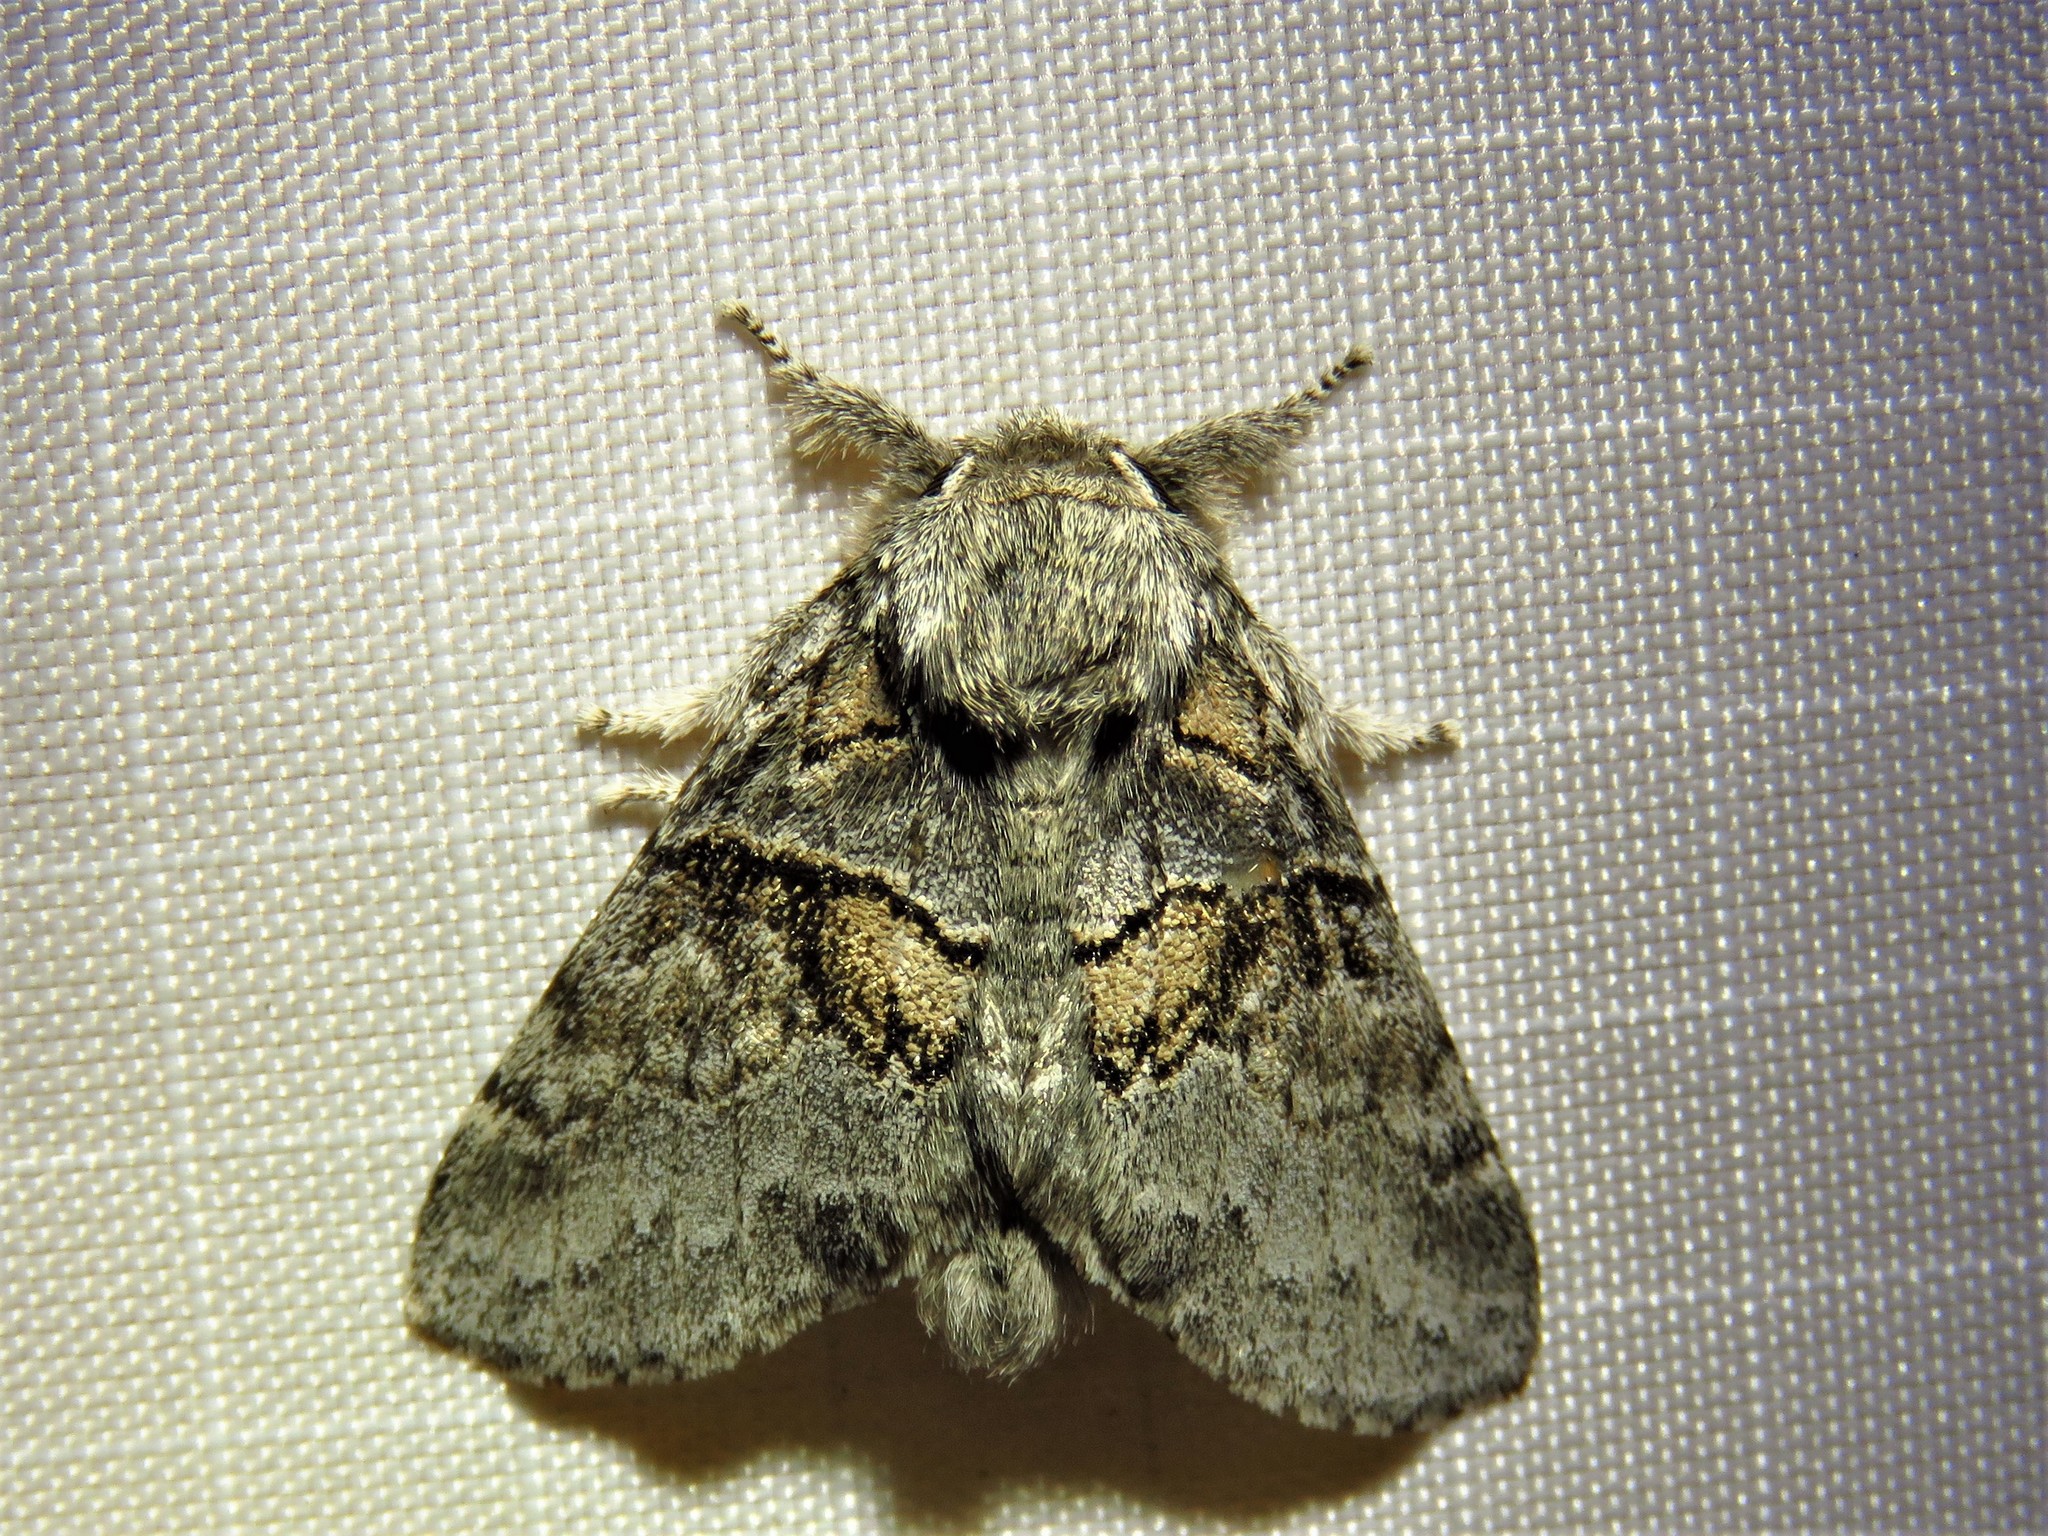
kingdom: Animalia
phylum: Arthropoda
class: Insecta
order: Lepidoptera
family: Notodontidae
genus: Gluphisia
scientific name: Gluphisia septentrionis
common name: Common gluphisia
